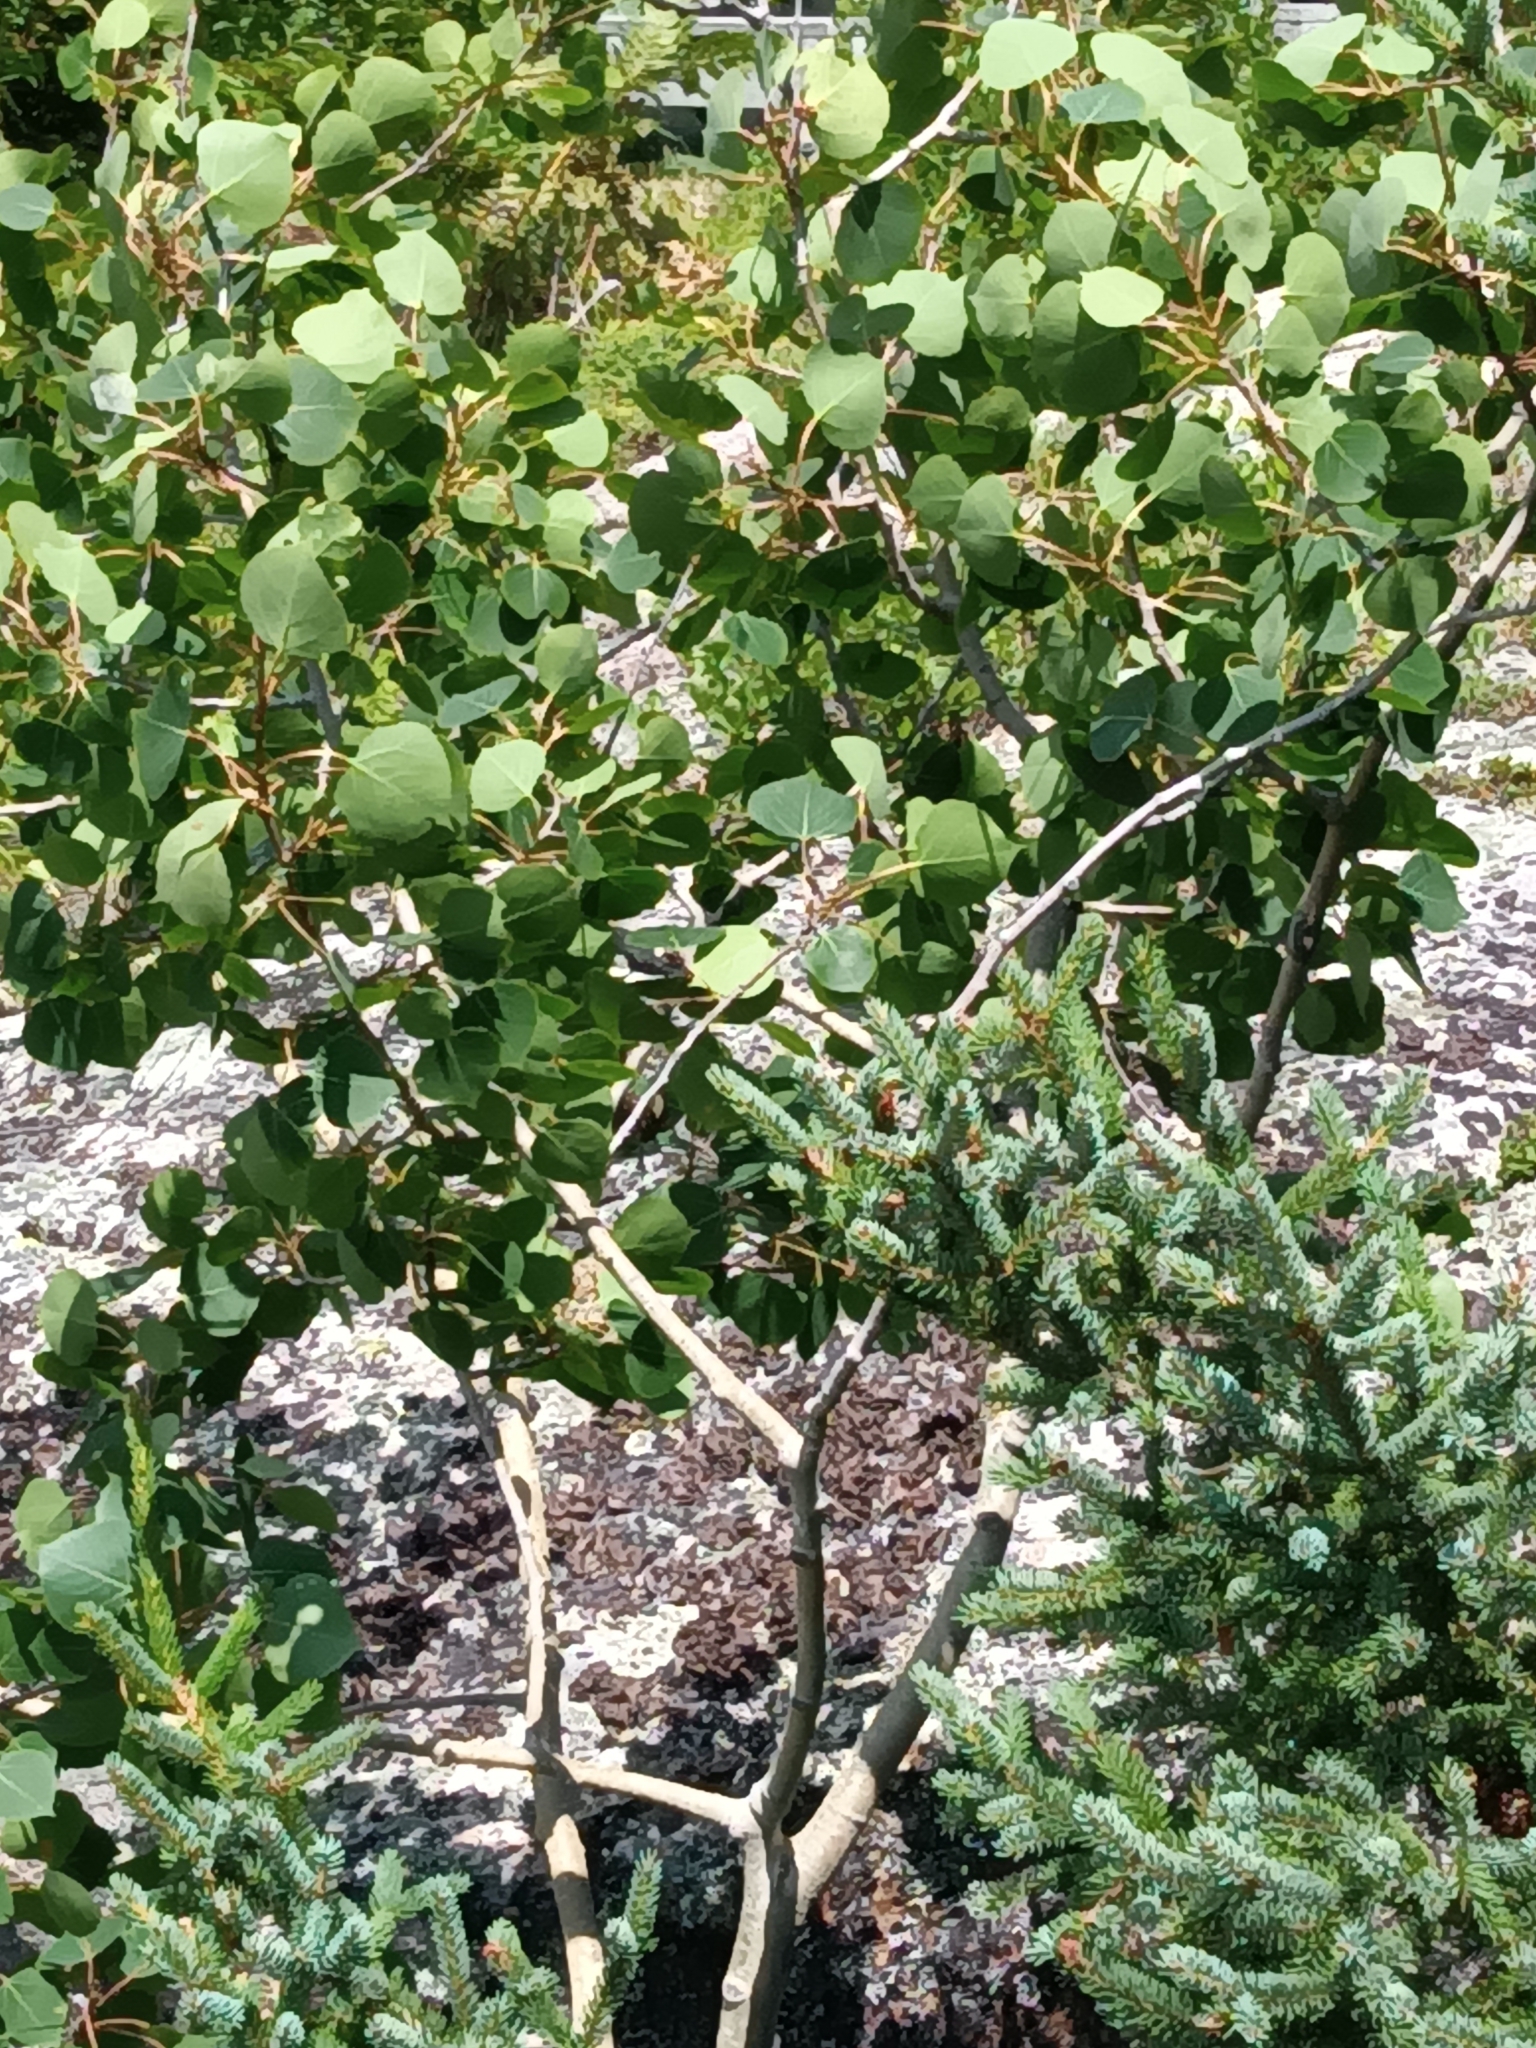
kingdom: Plantae
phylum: Tracheophyta
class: Magnoliopsida
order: Malpighiales
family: Salicaceae
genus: Populus
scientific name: Populus tremuloides
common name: Quaking aspen
